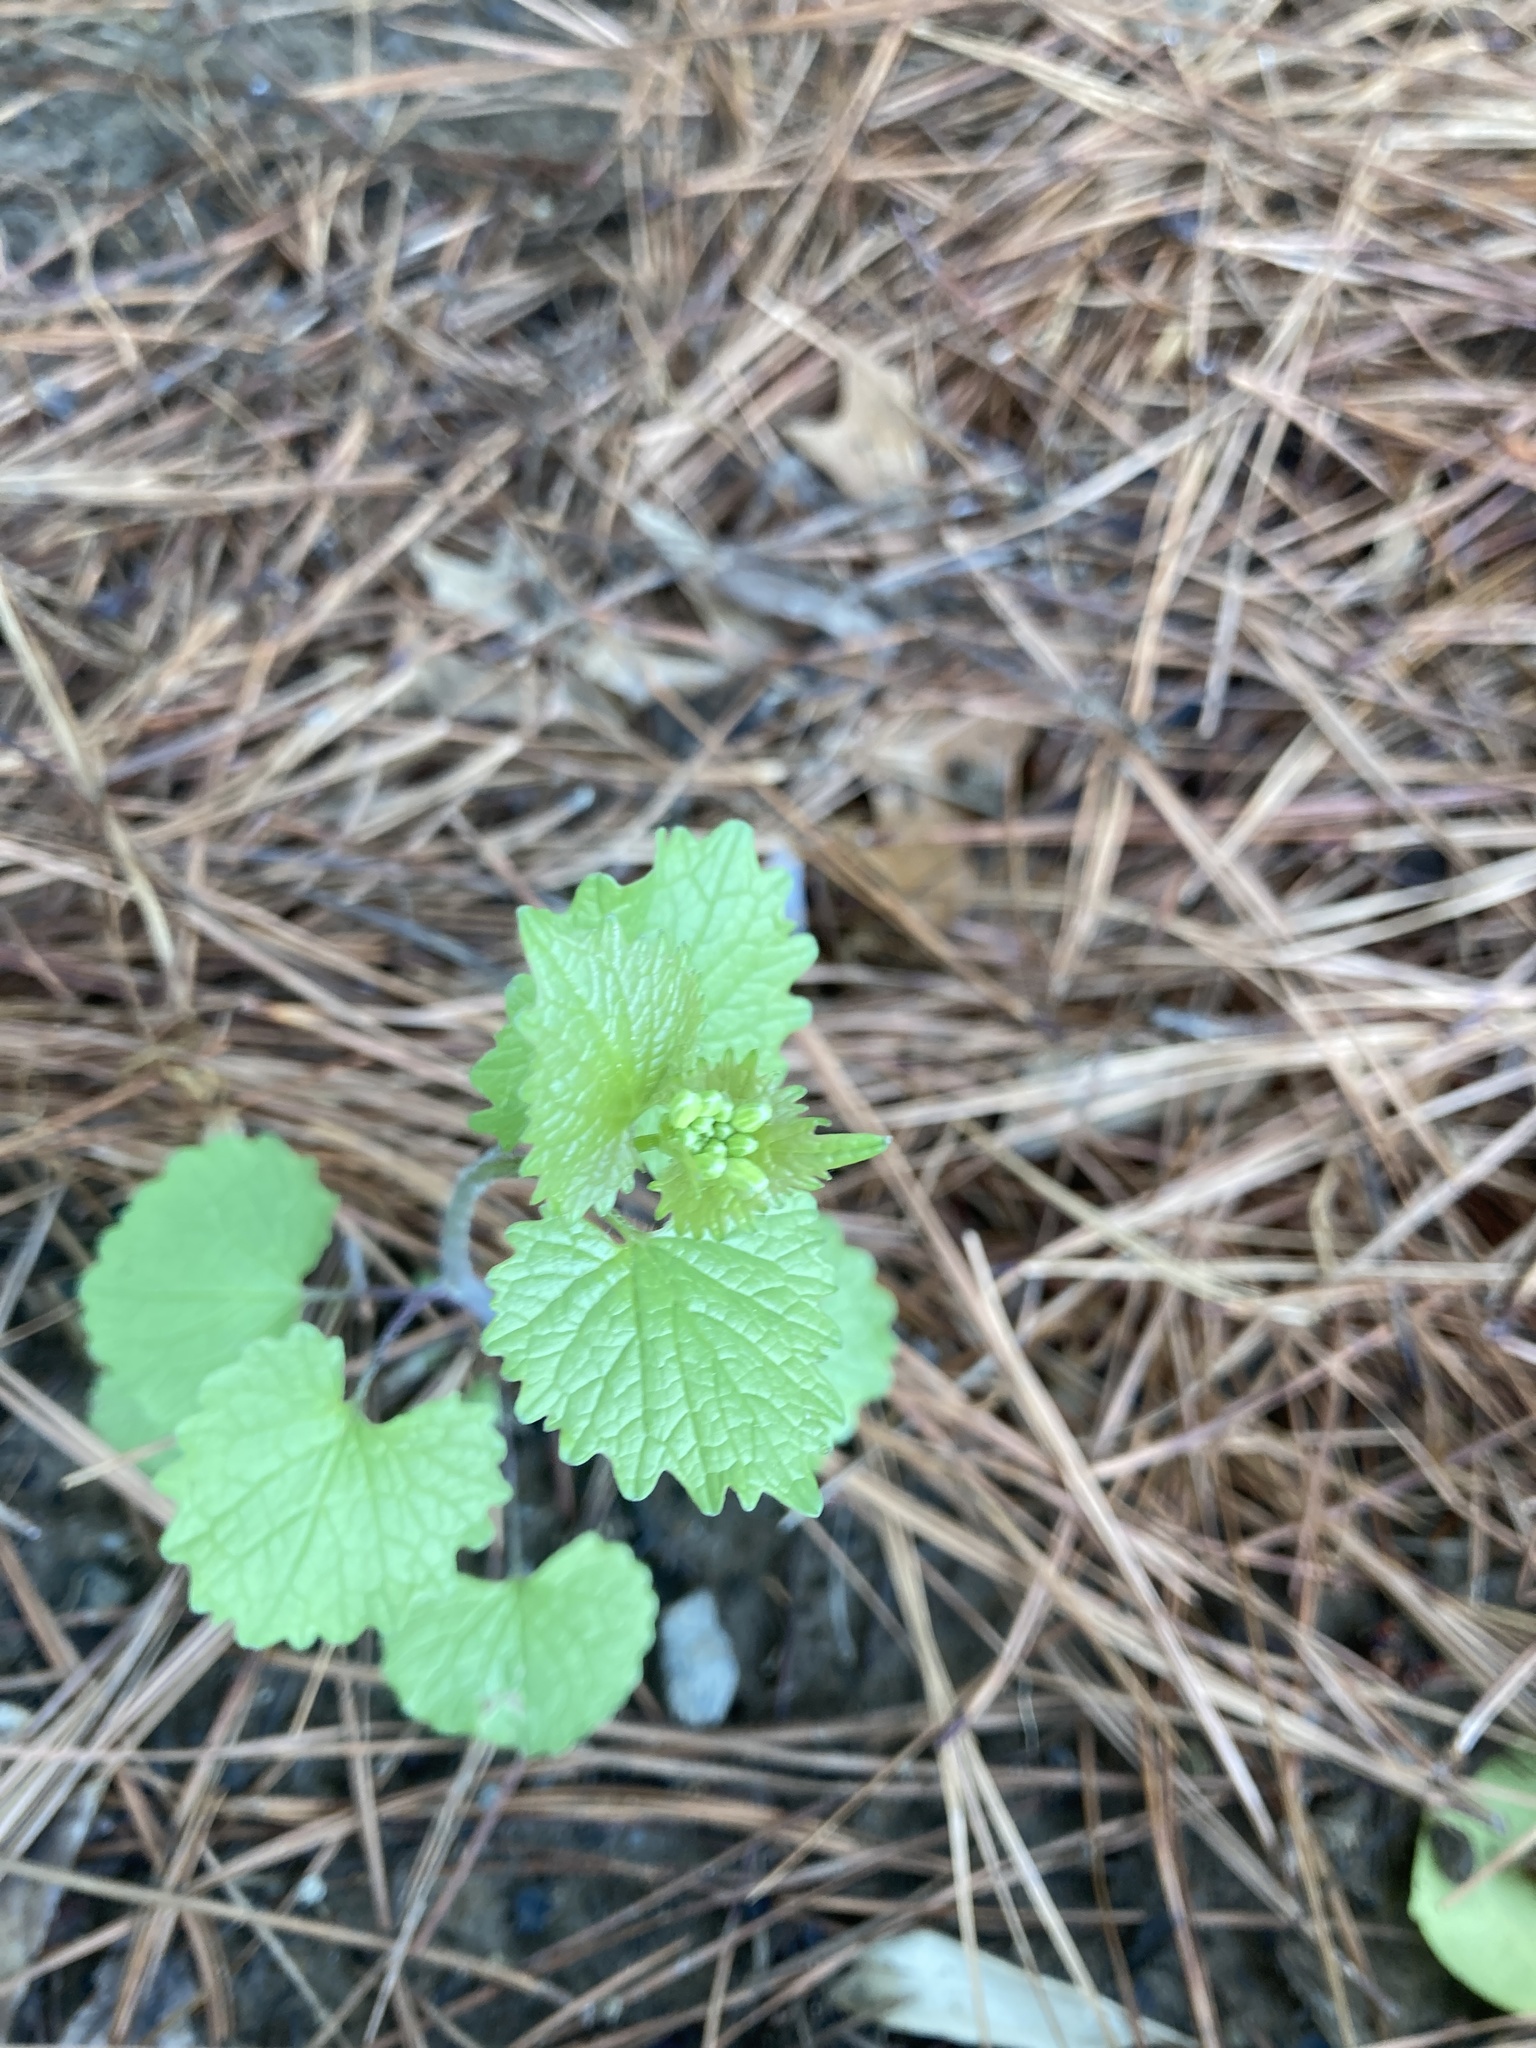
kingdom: Plantae
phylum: Tracheophyta
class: Magnoliopsida
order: Brassicales
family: Brassicaceae
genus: Alliaria
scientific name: Alliaria petiolata
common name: Garlic mustard
